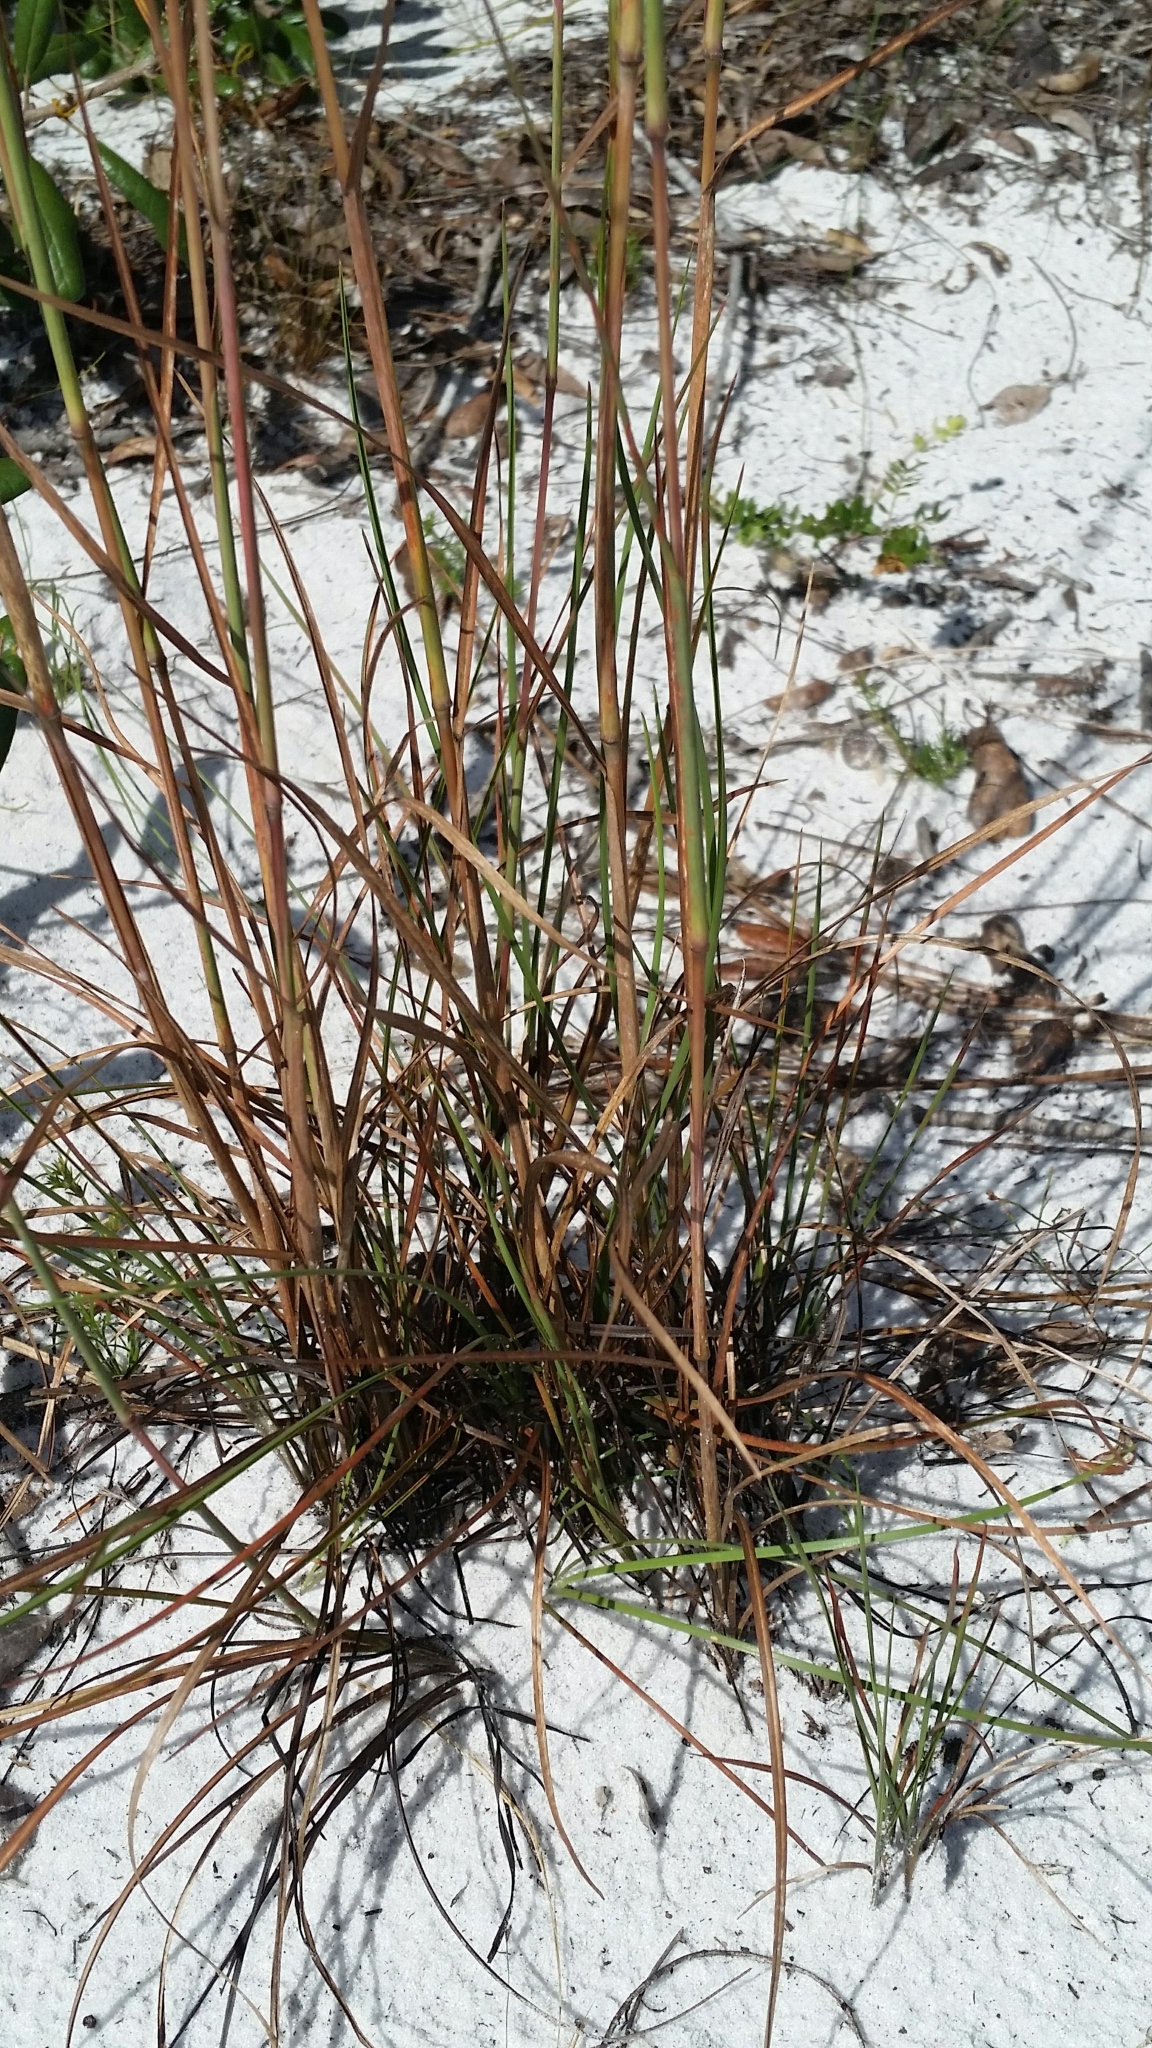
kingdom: Plantae
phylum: Tracheophyta
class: Liliopsida
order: Poales
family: Poaceae
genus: Andropogon
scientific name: Andropogon cumulicola
